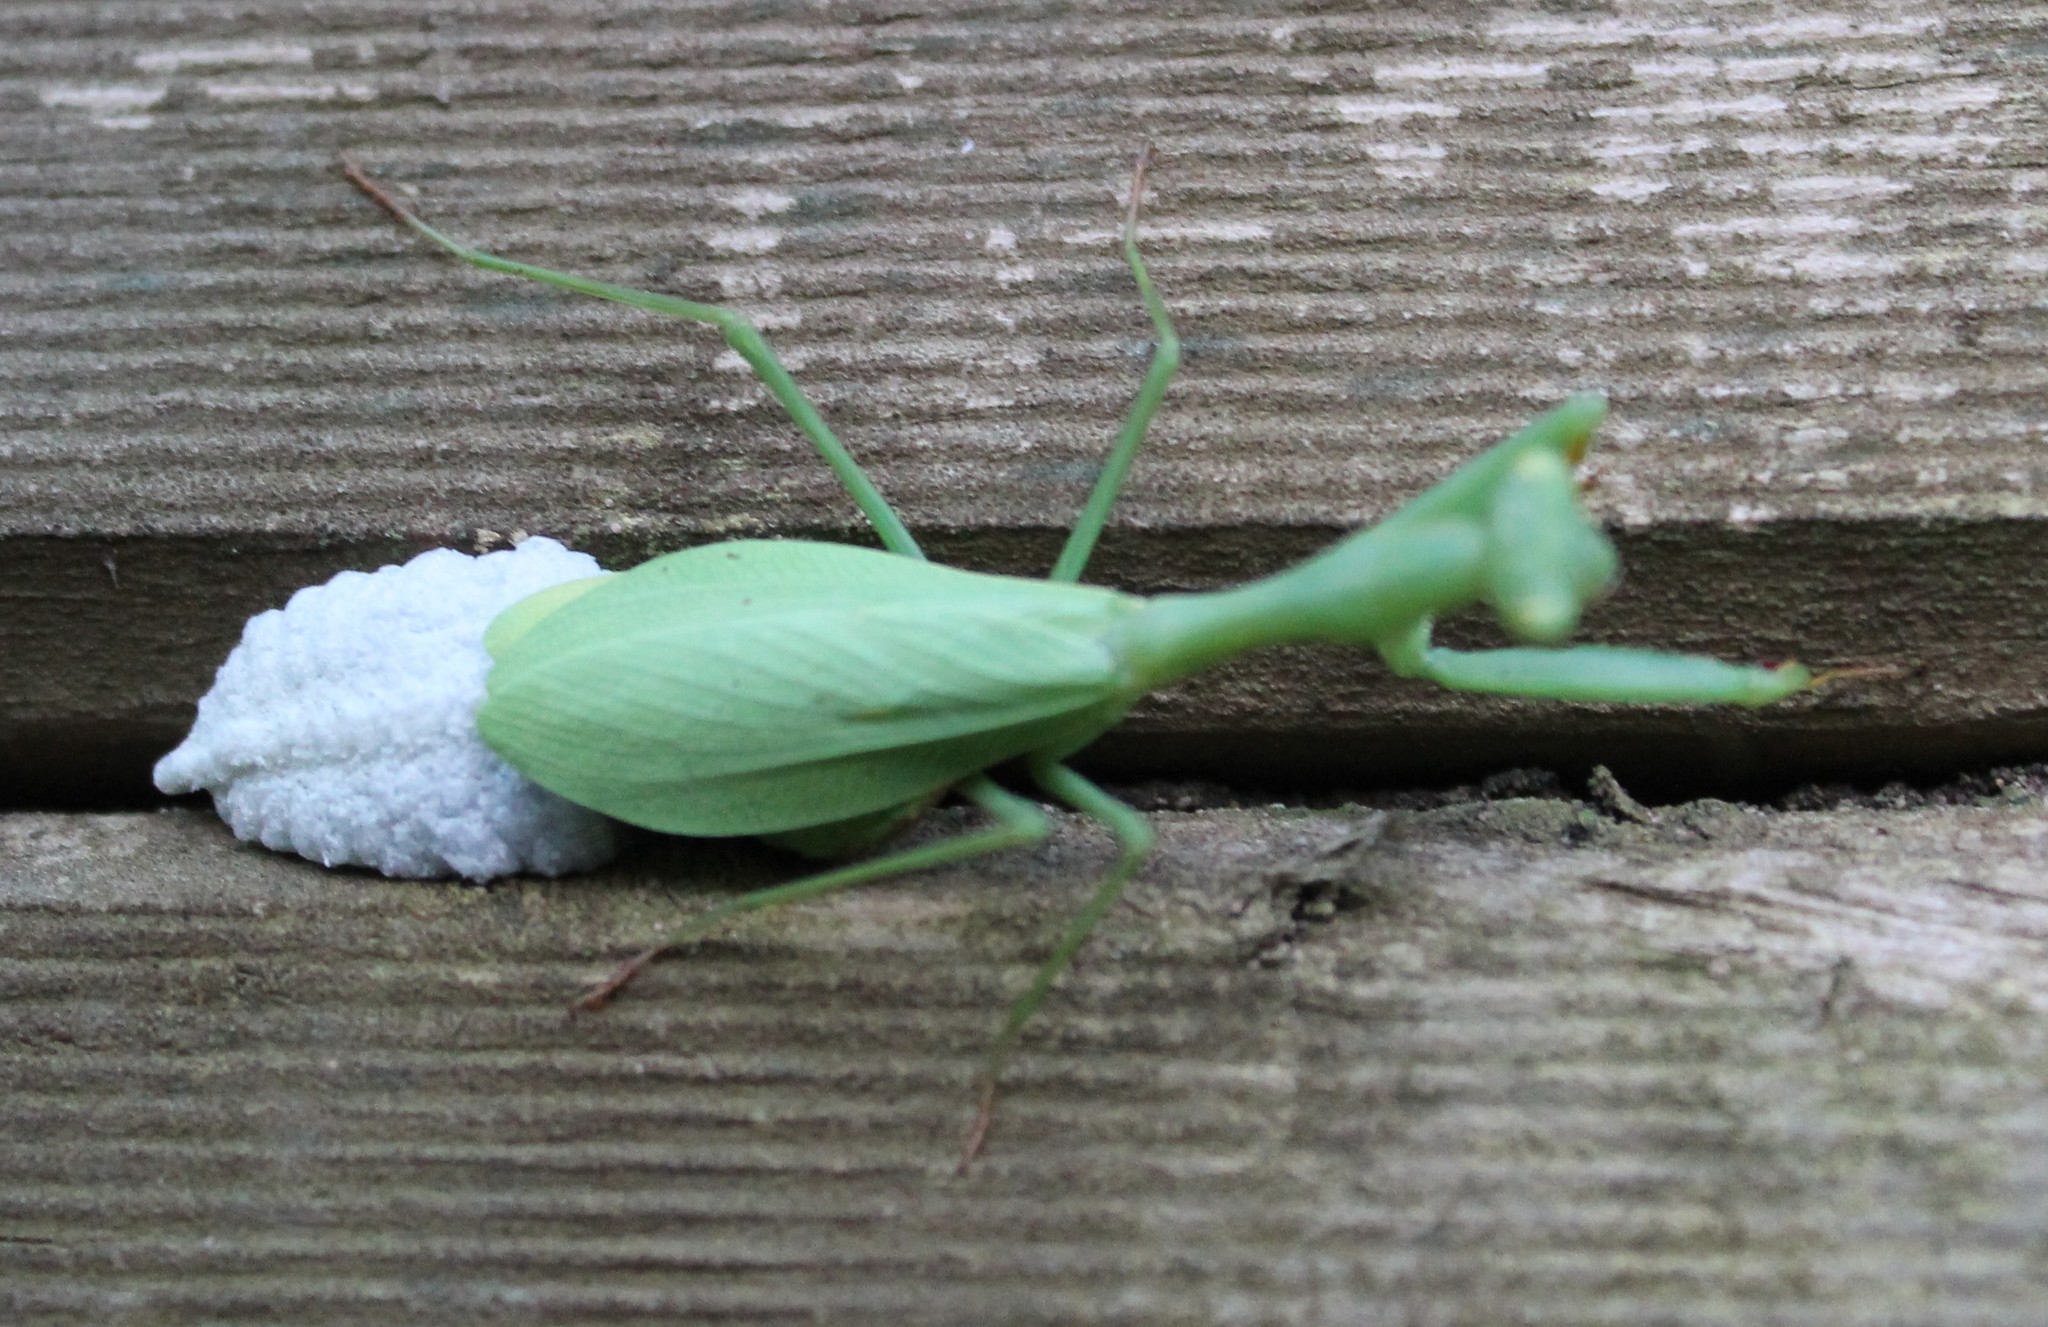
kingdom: Animalia
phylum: Arthropoda
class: Insecta
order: Mantodea
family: Miomantidae
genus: Miomantis
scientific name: Miomantis caffra
